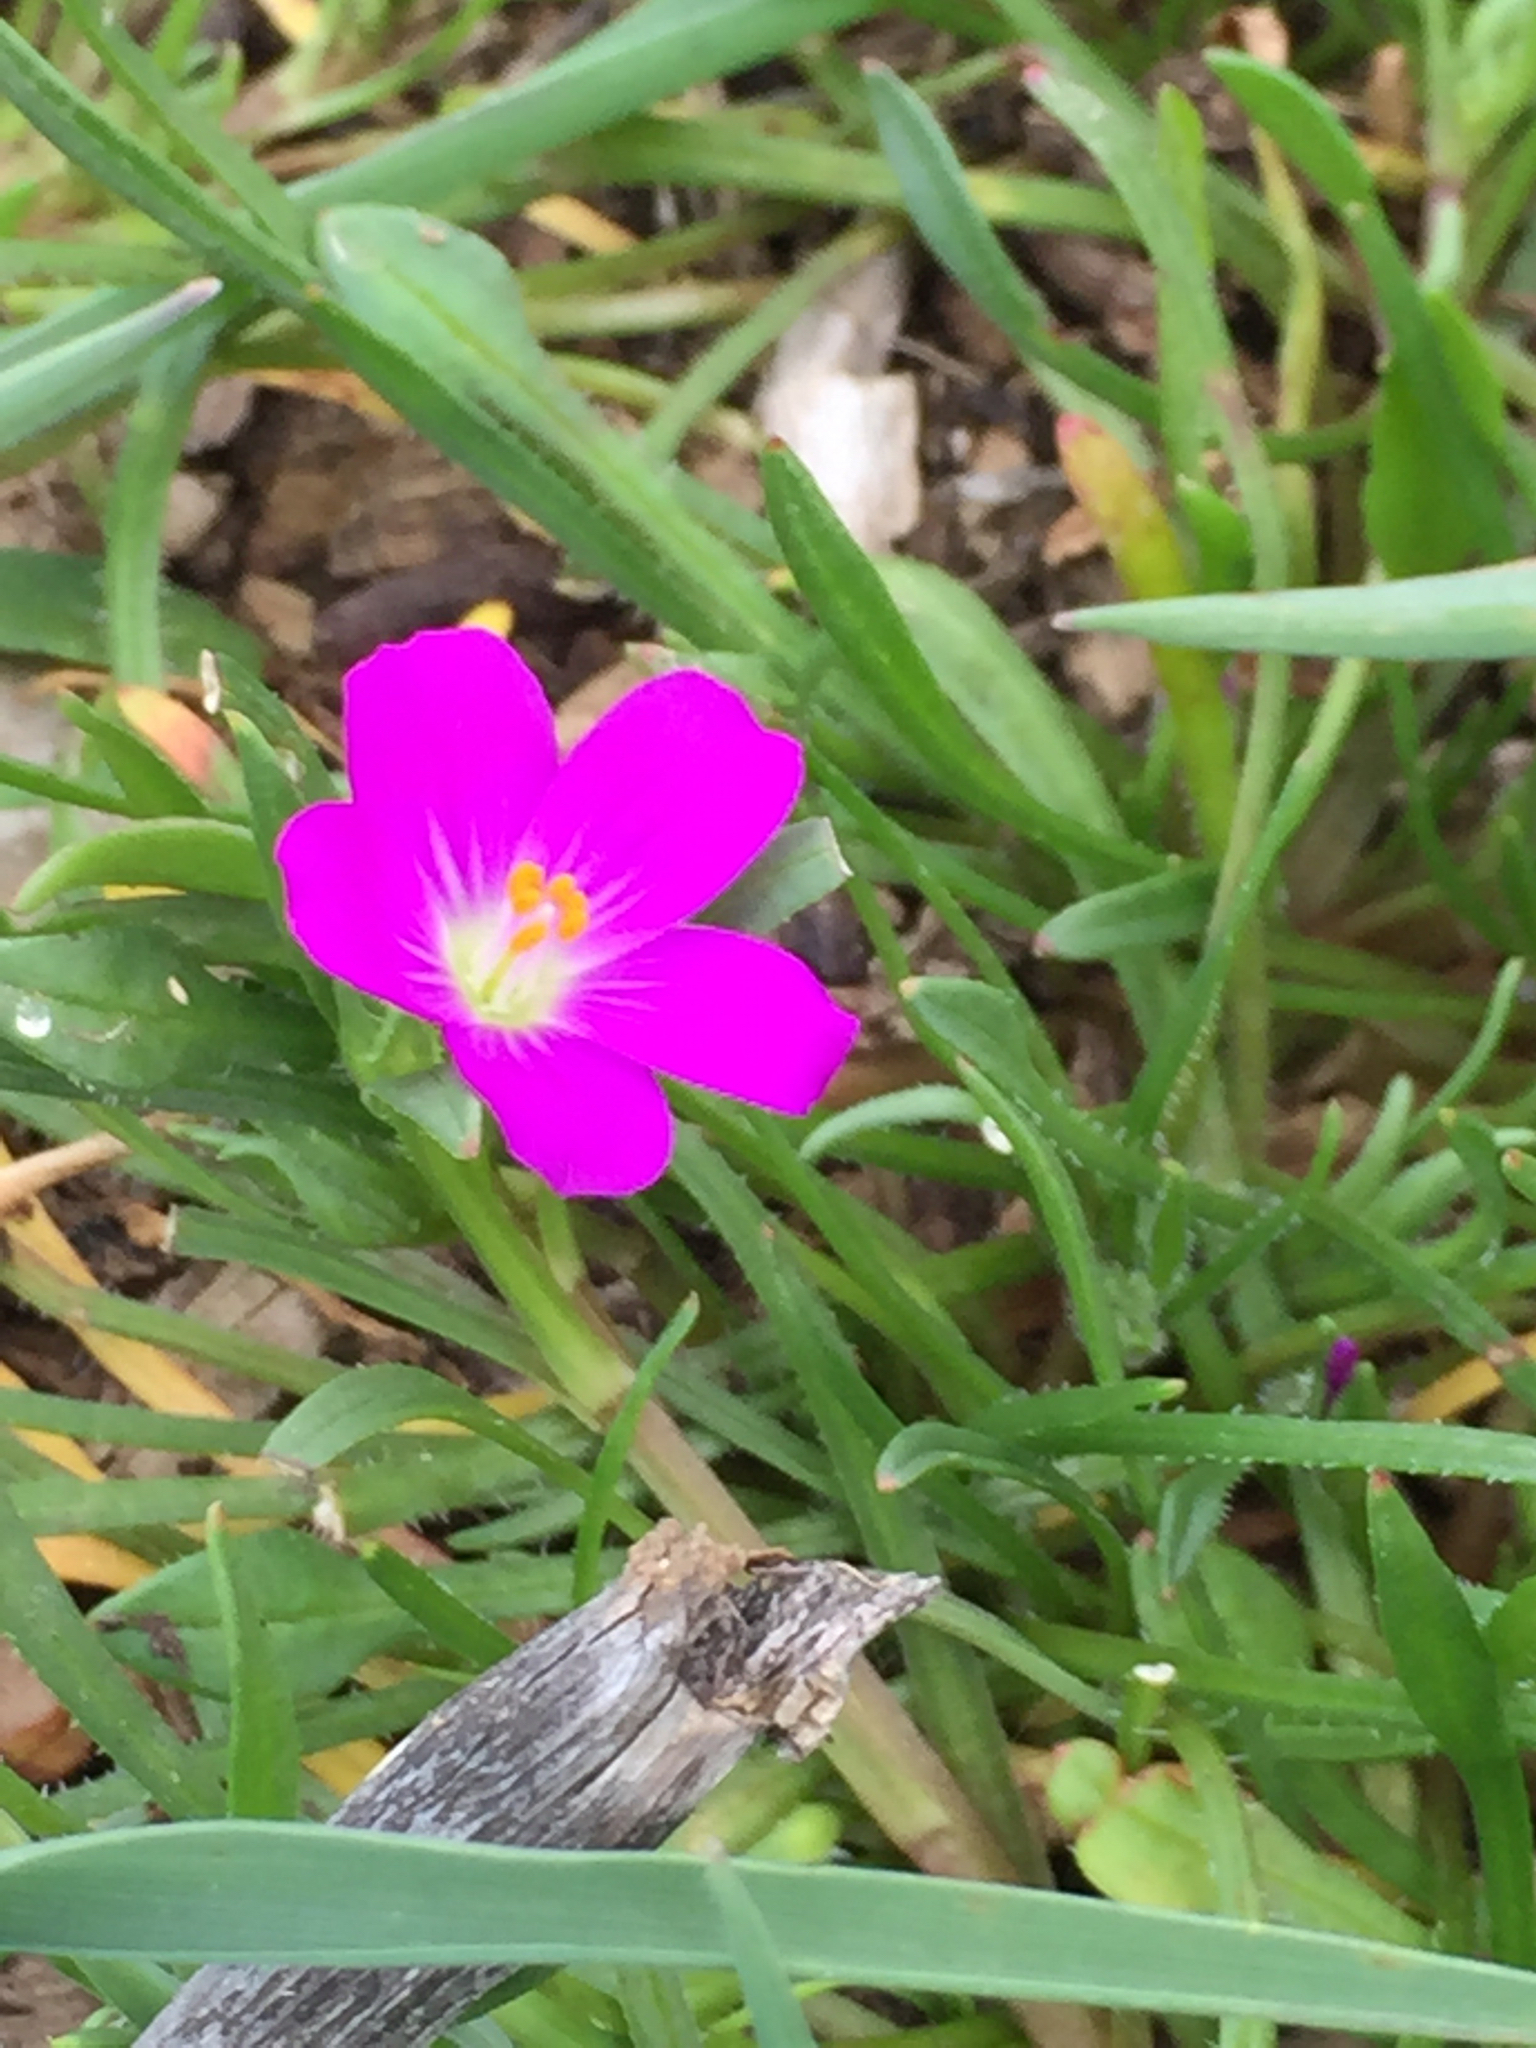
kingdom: Plantae
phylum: Tracheophyta
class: Magnoliopsida
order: Caryophyllales
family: Montiaceae
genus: Calandrinia
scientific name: Calandrinia menziesii
